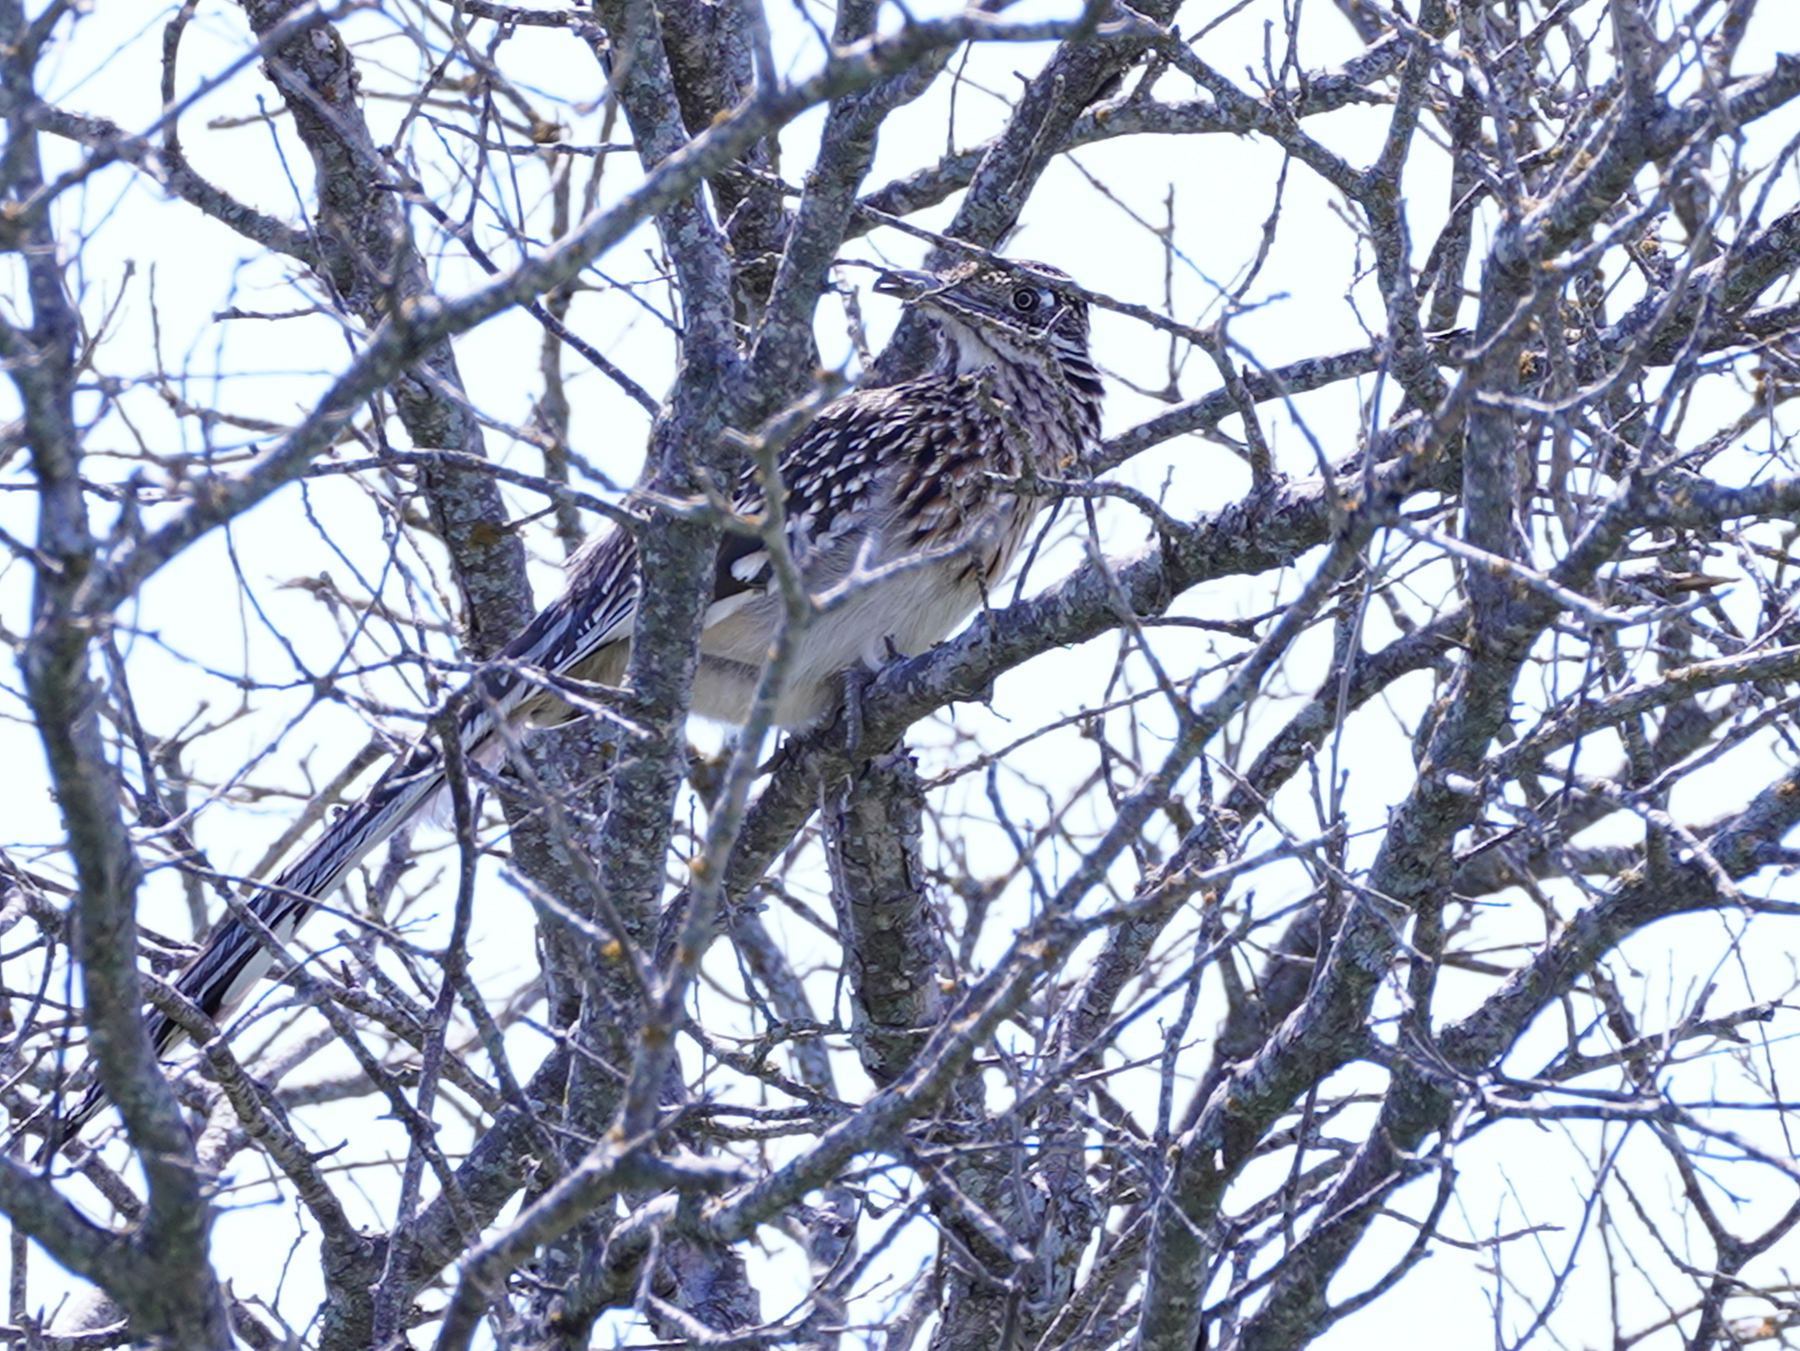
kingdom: Animalia
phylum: Chordata
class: Aves
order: Cuculiformes
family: Cuculidae
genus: Geococcyx
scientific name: Geococcyx californianus
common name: Greater roadrunner
